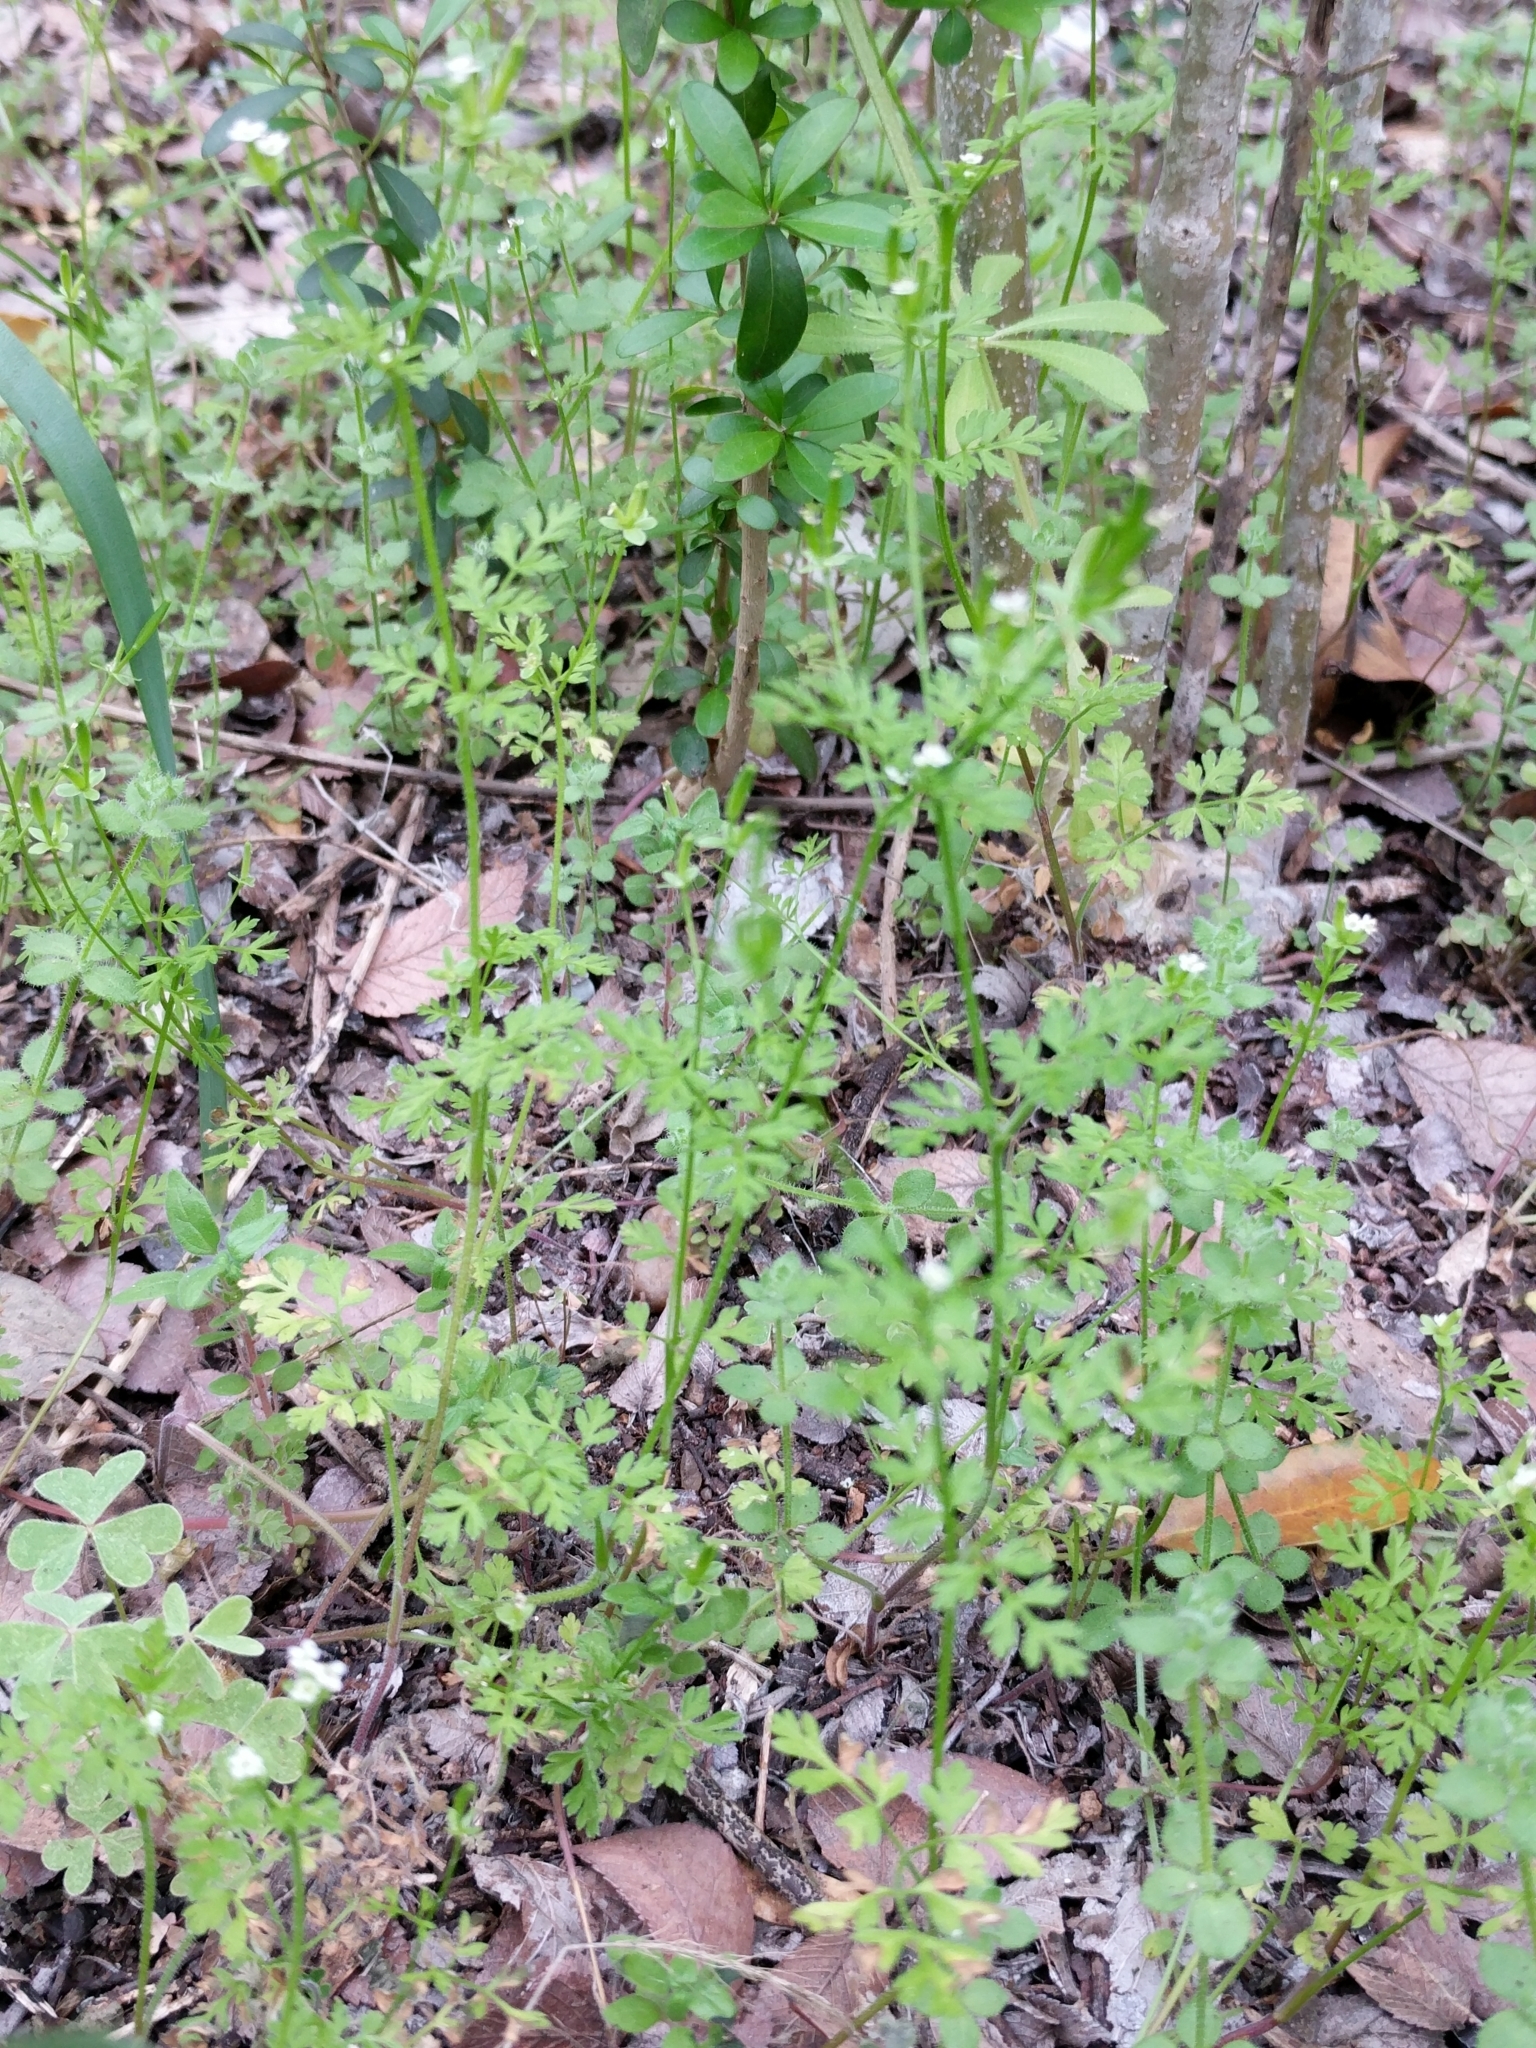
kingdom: Plantae
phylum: Tracheophyta
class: Magnoliopsida
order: Apiales
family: Apiaceae
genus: Chaerophyllum
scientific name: Chaerophyllum tainturieri
